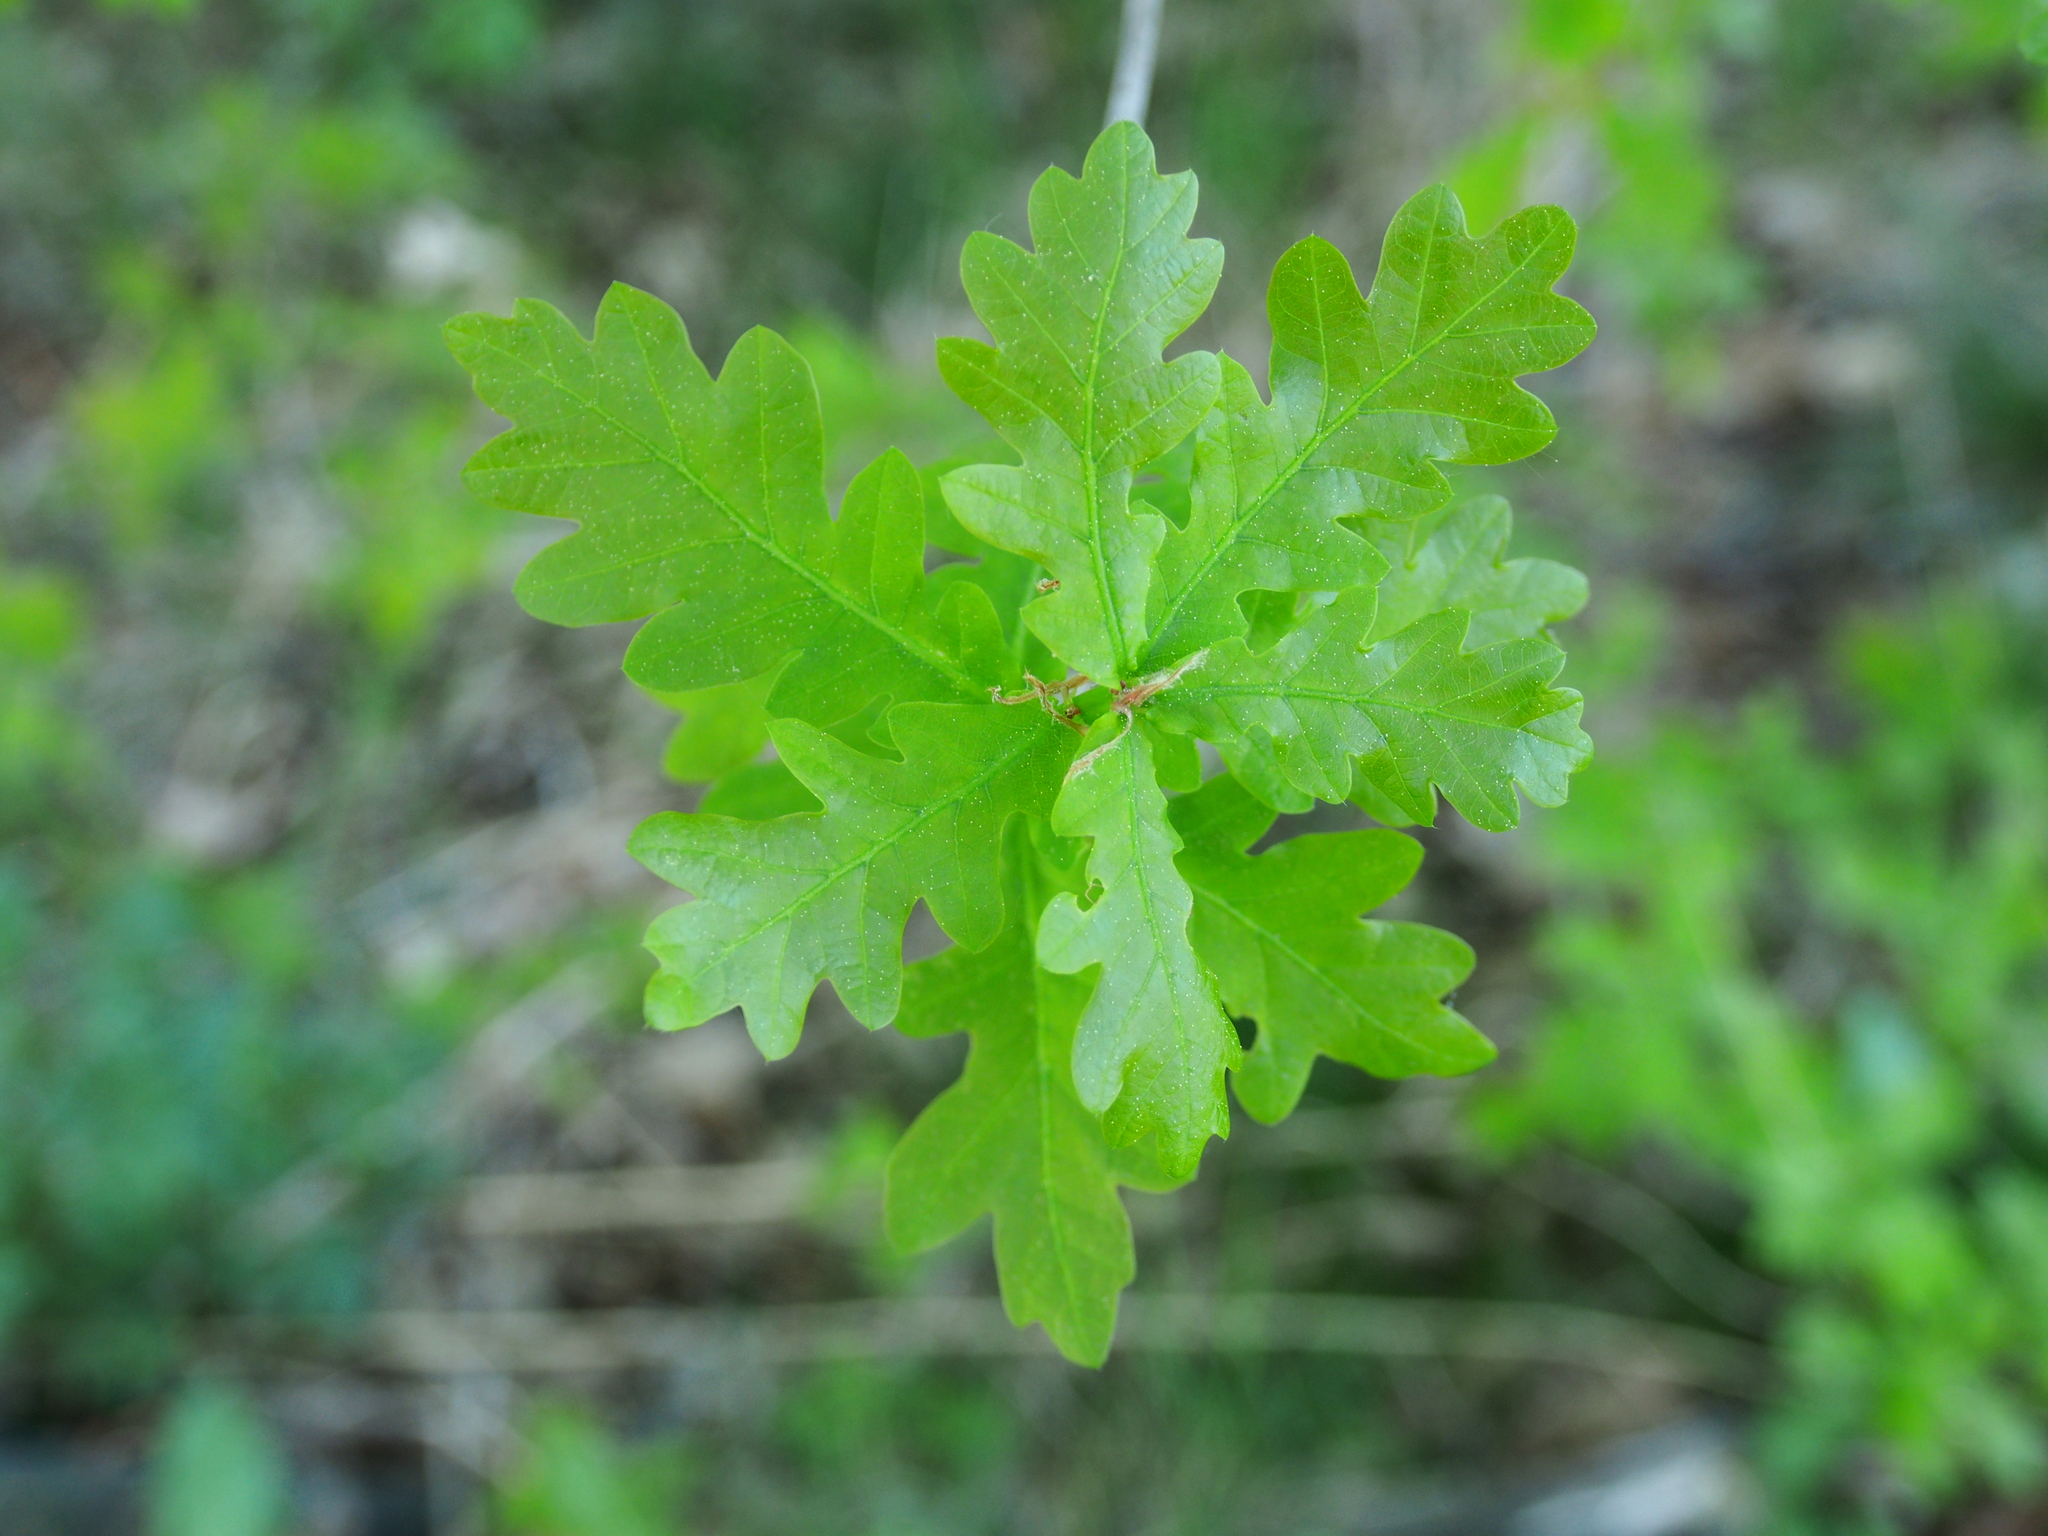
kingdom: Plantae
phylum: Tracheophyta
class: Magnoliopsida
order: Fagales
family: Fagaceae
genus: Quercus
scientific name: Quercus robur
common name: Pedunculate oak
